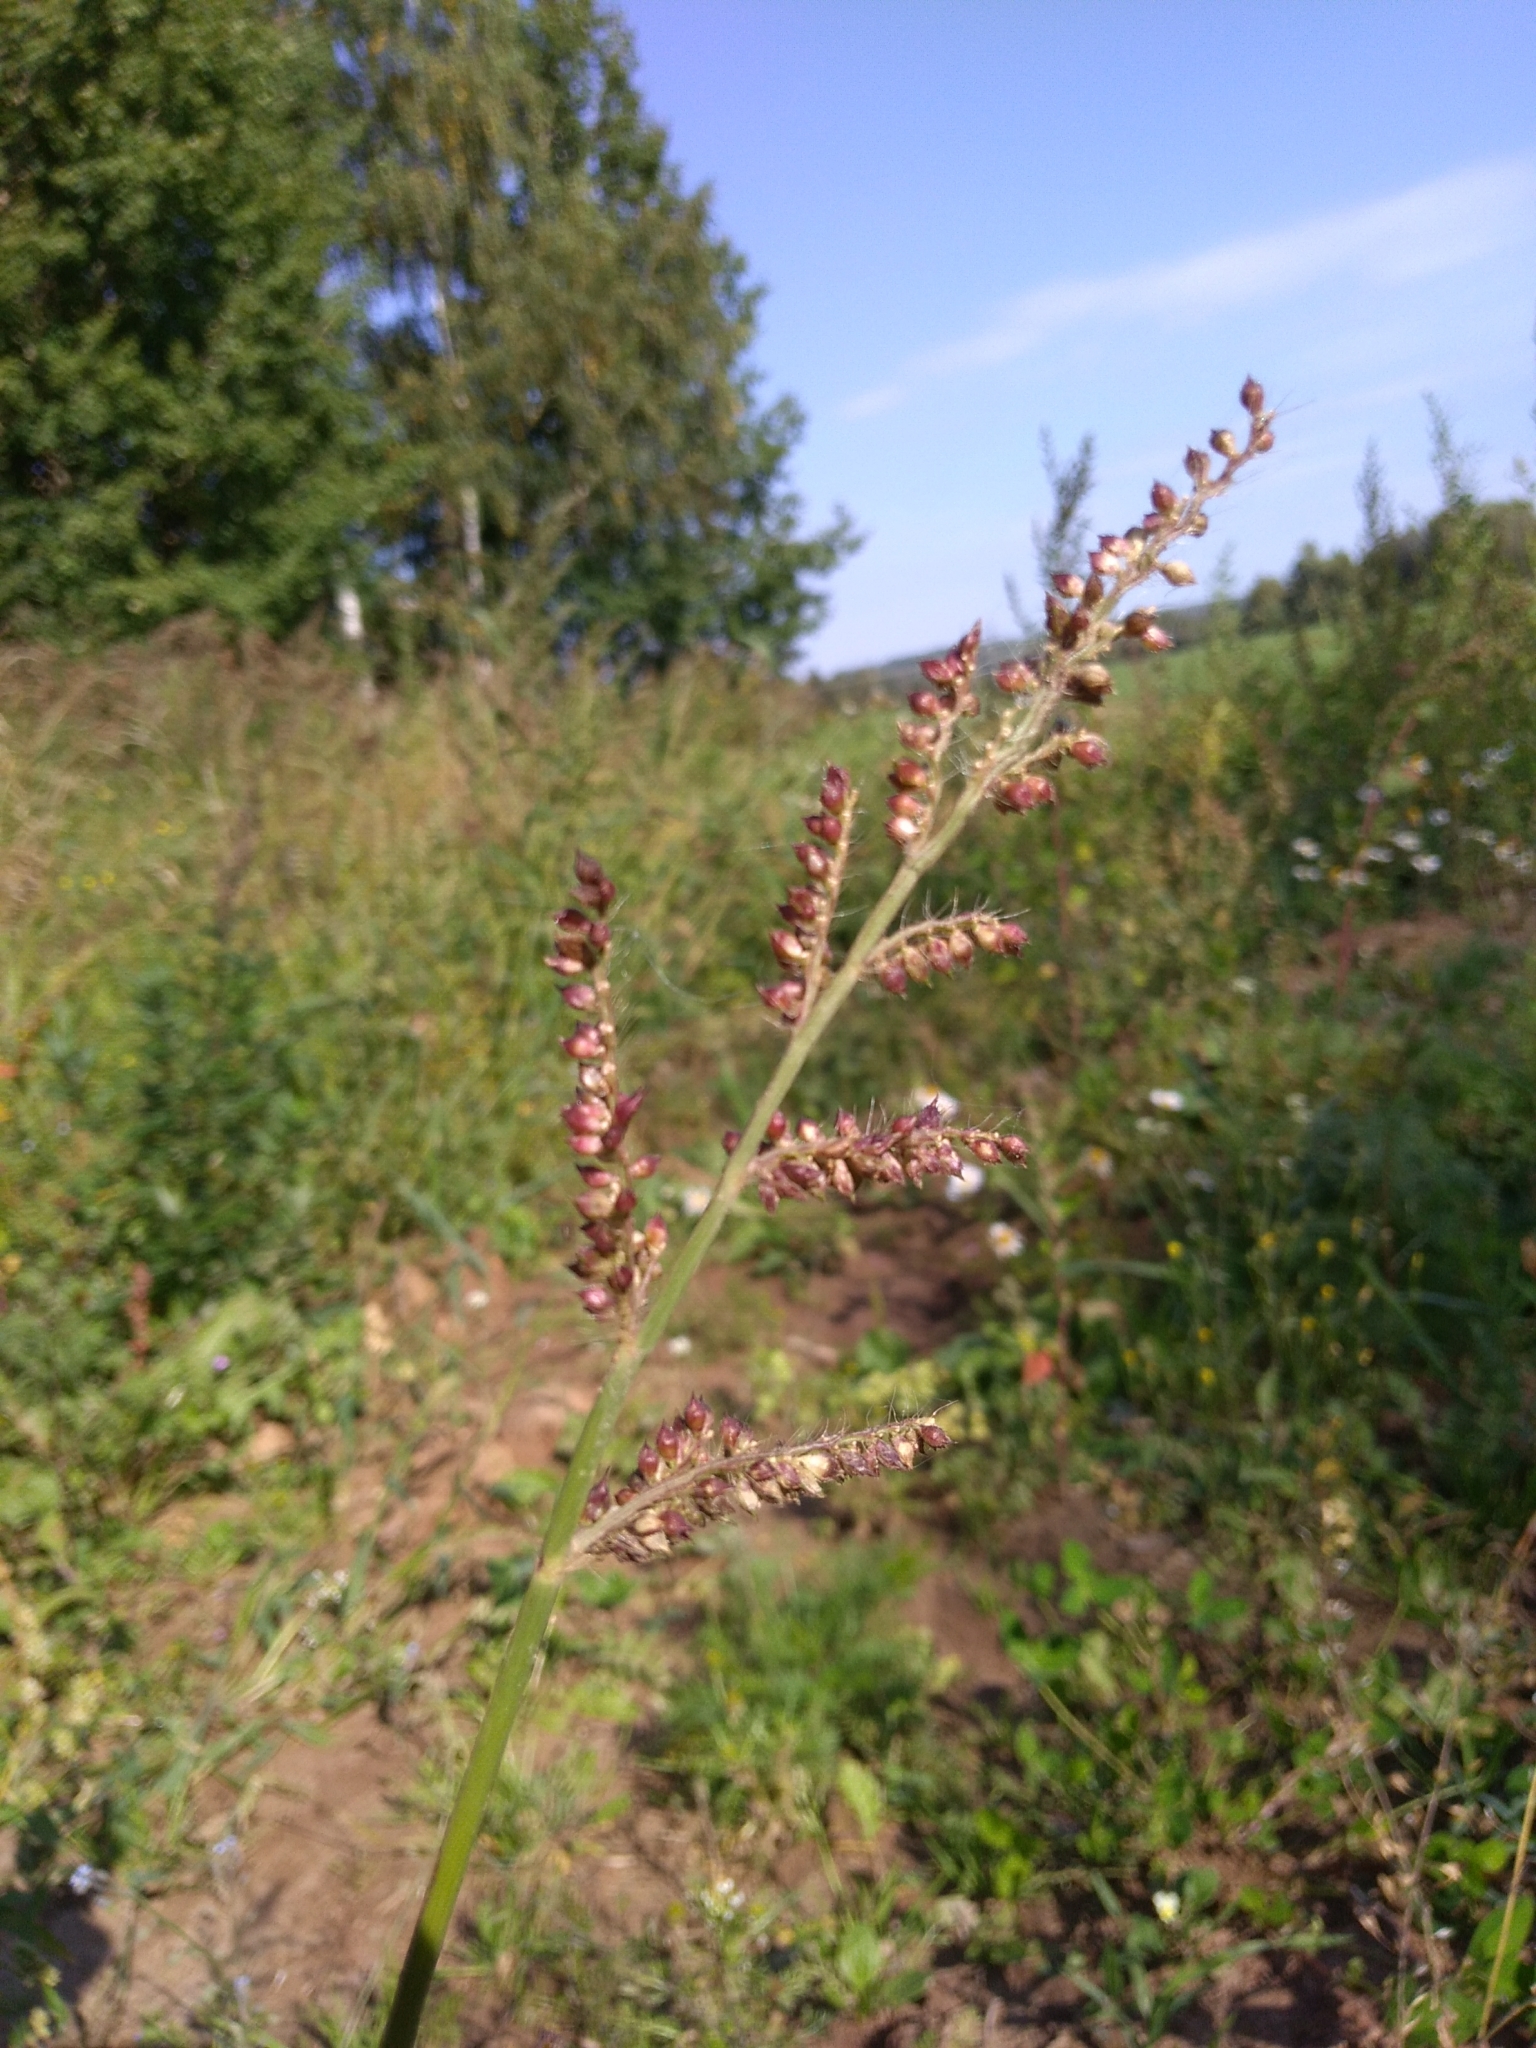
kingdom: Plantae
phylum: Tracheophyta
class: Liliopsida
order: Poales
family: Poaceae
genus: Echinochloa
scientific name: Echinochloa crus-galli
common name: Cockspur
